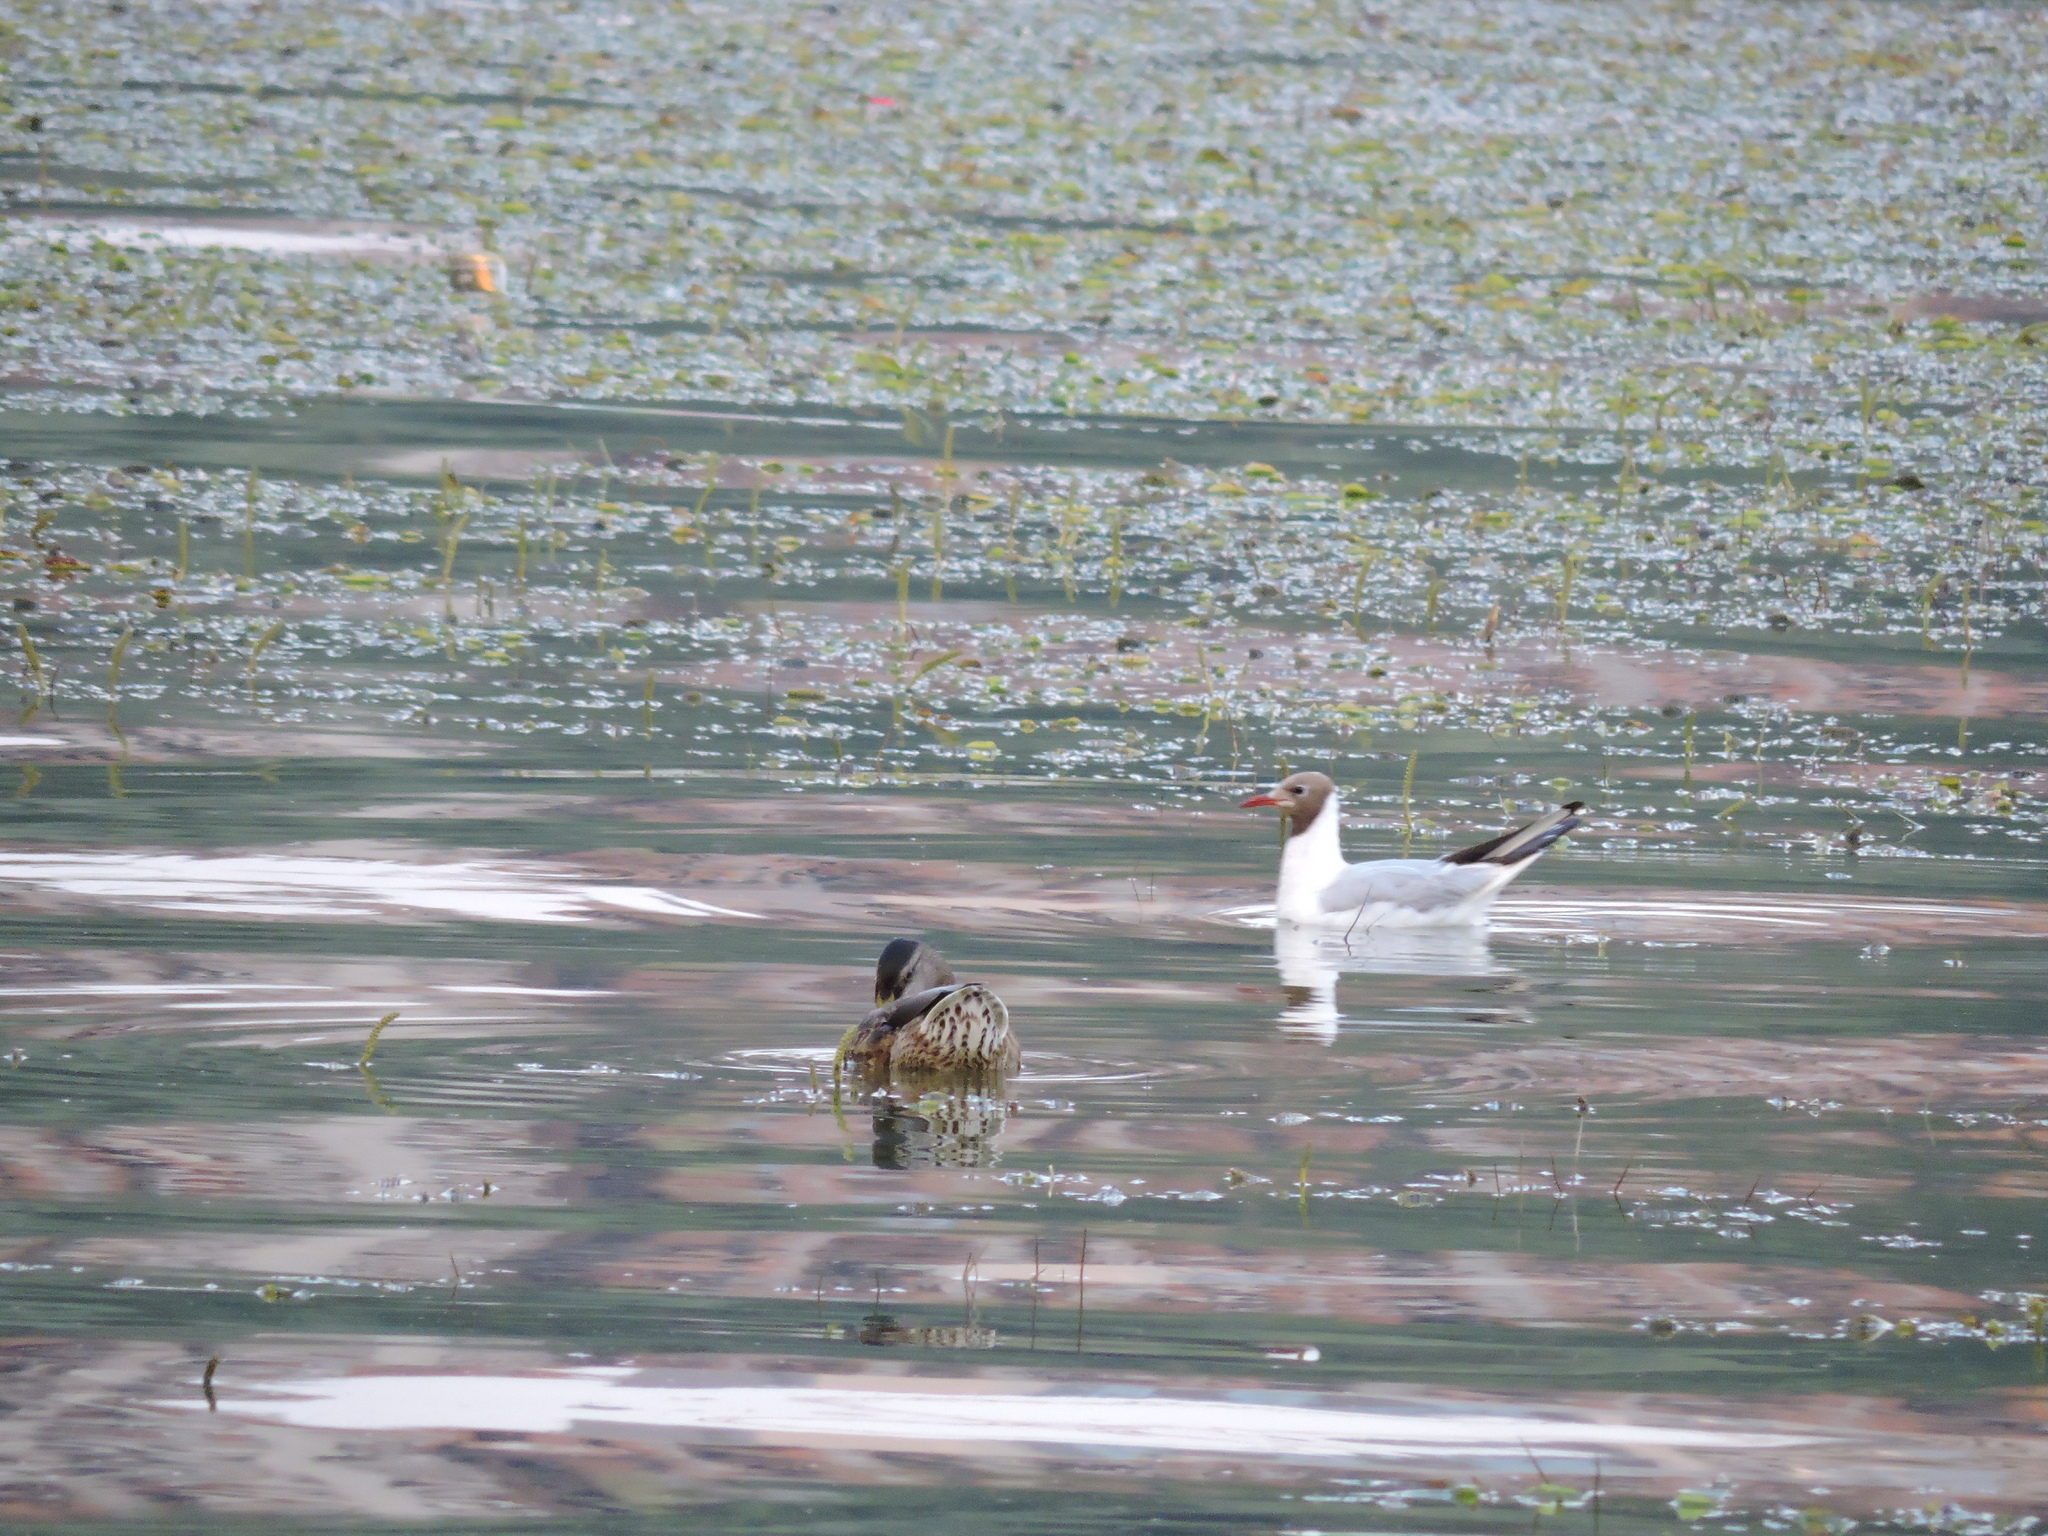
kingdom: Animalia
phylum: Chordata
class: Aves
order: Charadriiformes
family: Laridae
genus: Chroicocephalus
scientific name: Chroicocephalus ridibundus
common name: Black-headed gull
